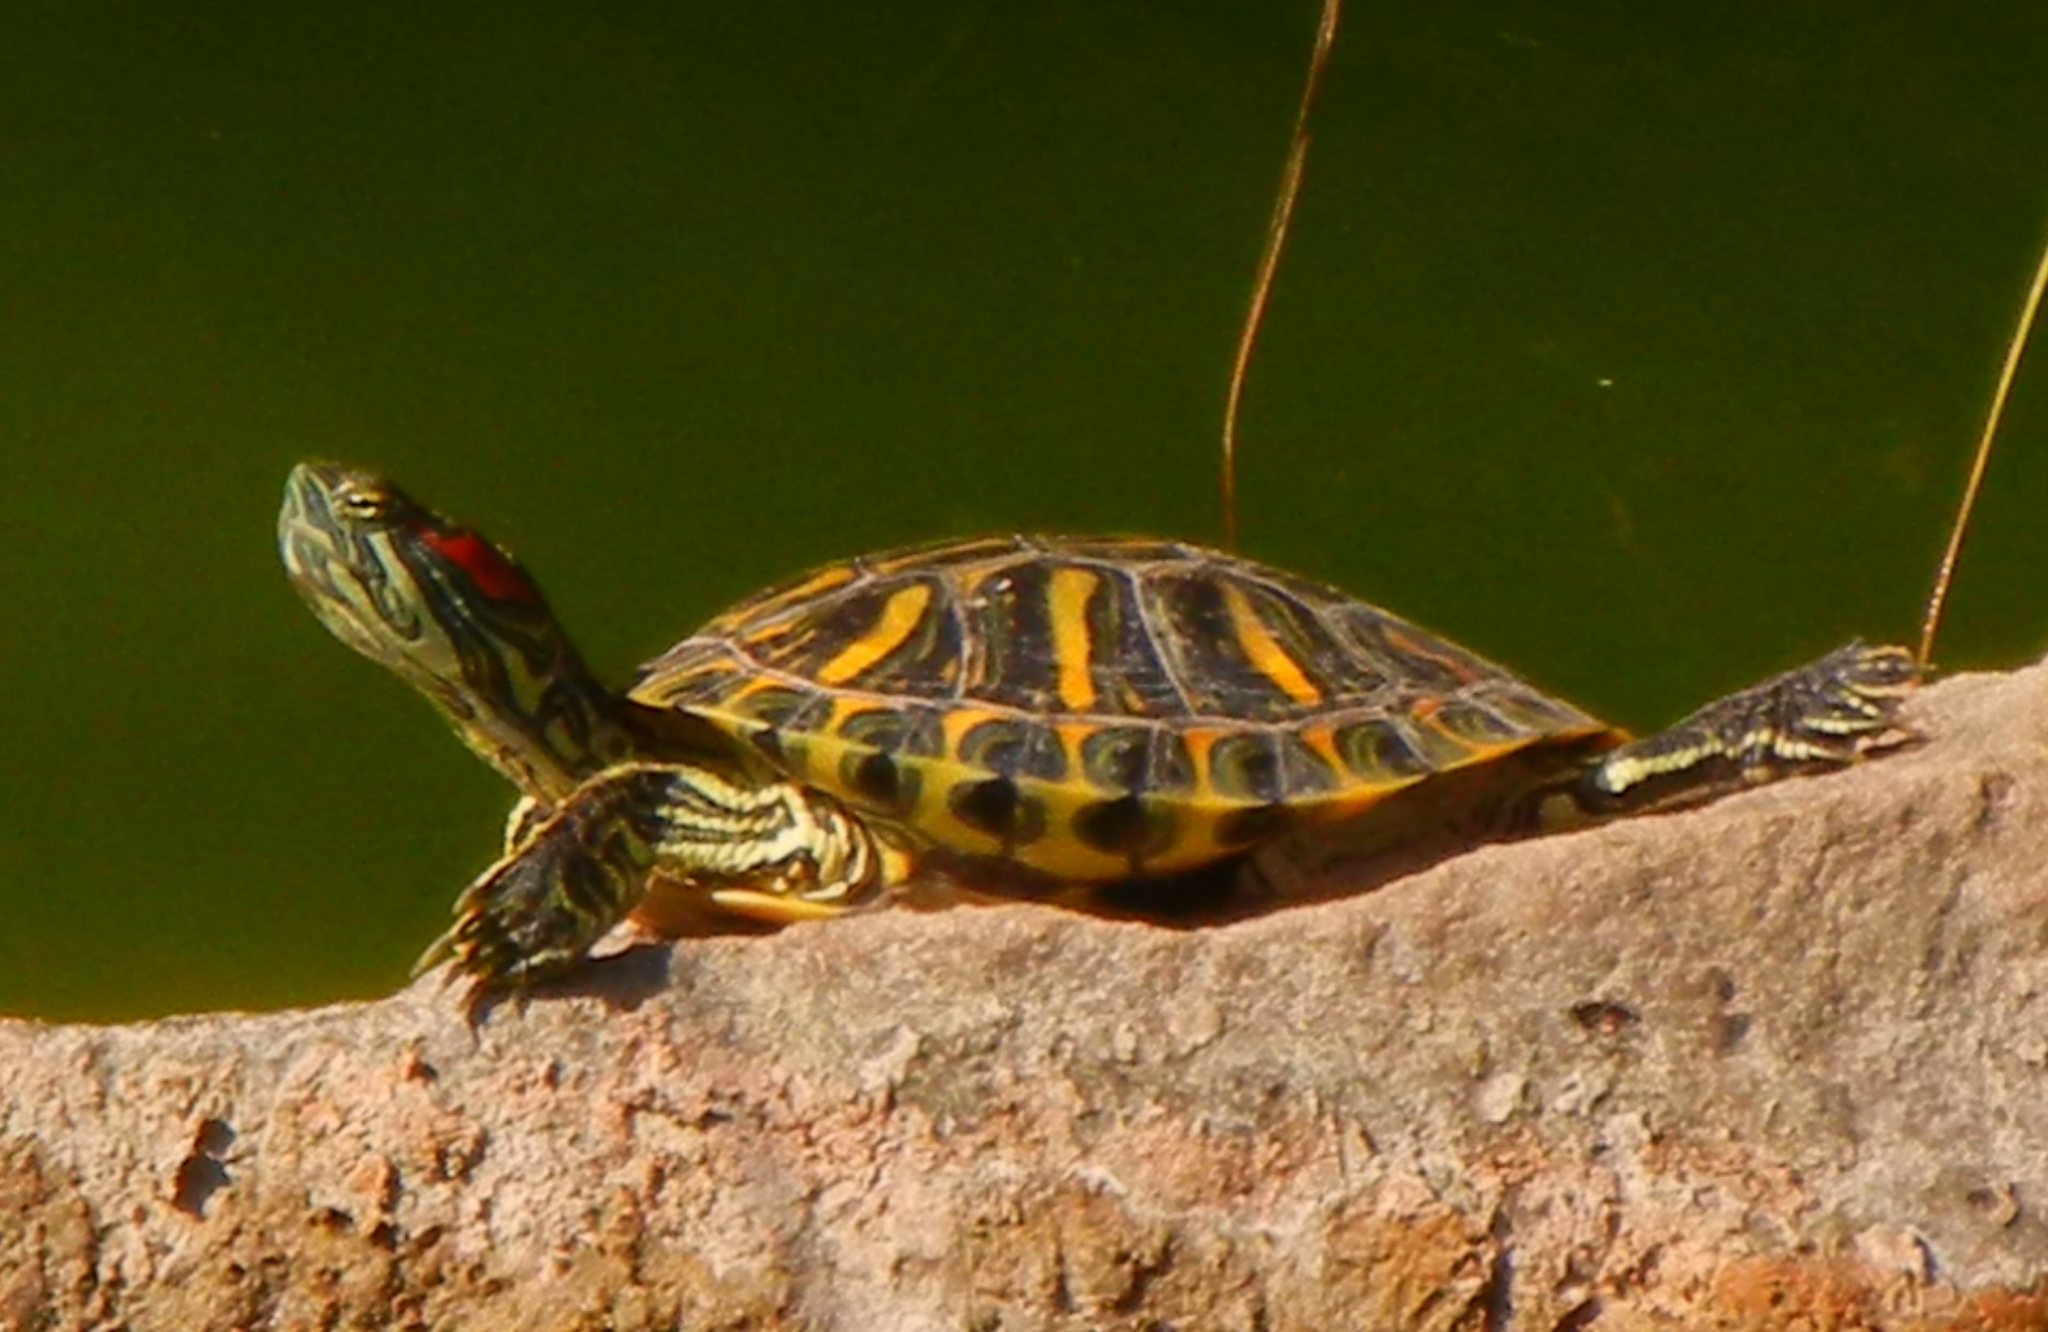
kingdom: Animalia
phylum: Chordata
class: Testudines
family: Emydidae
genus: Trachemys
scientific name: Trachemys scripta
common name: Slider
